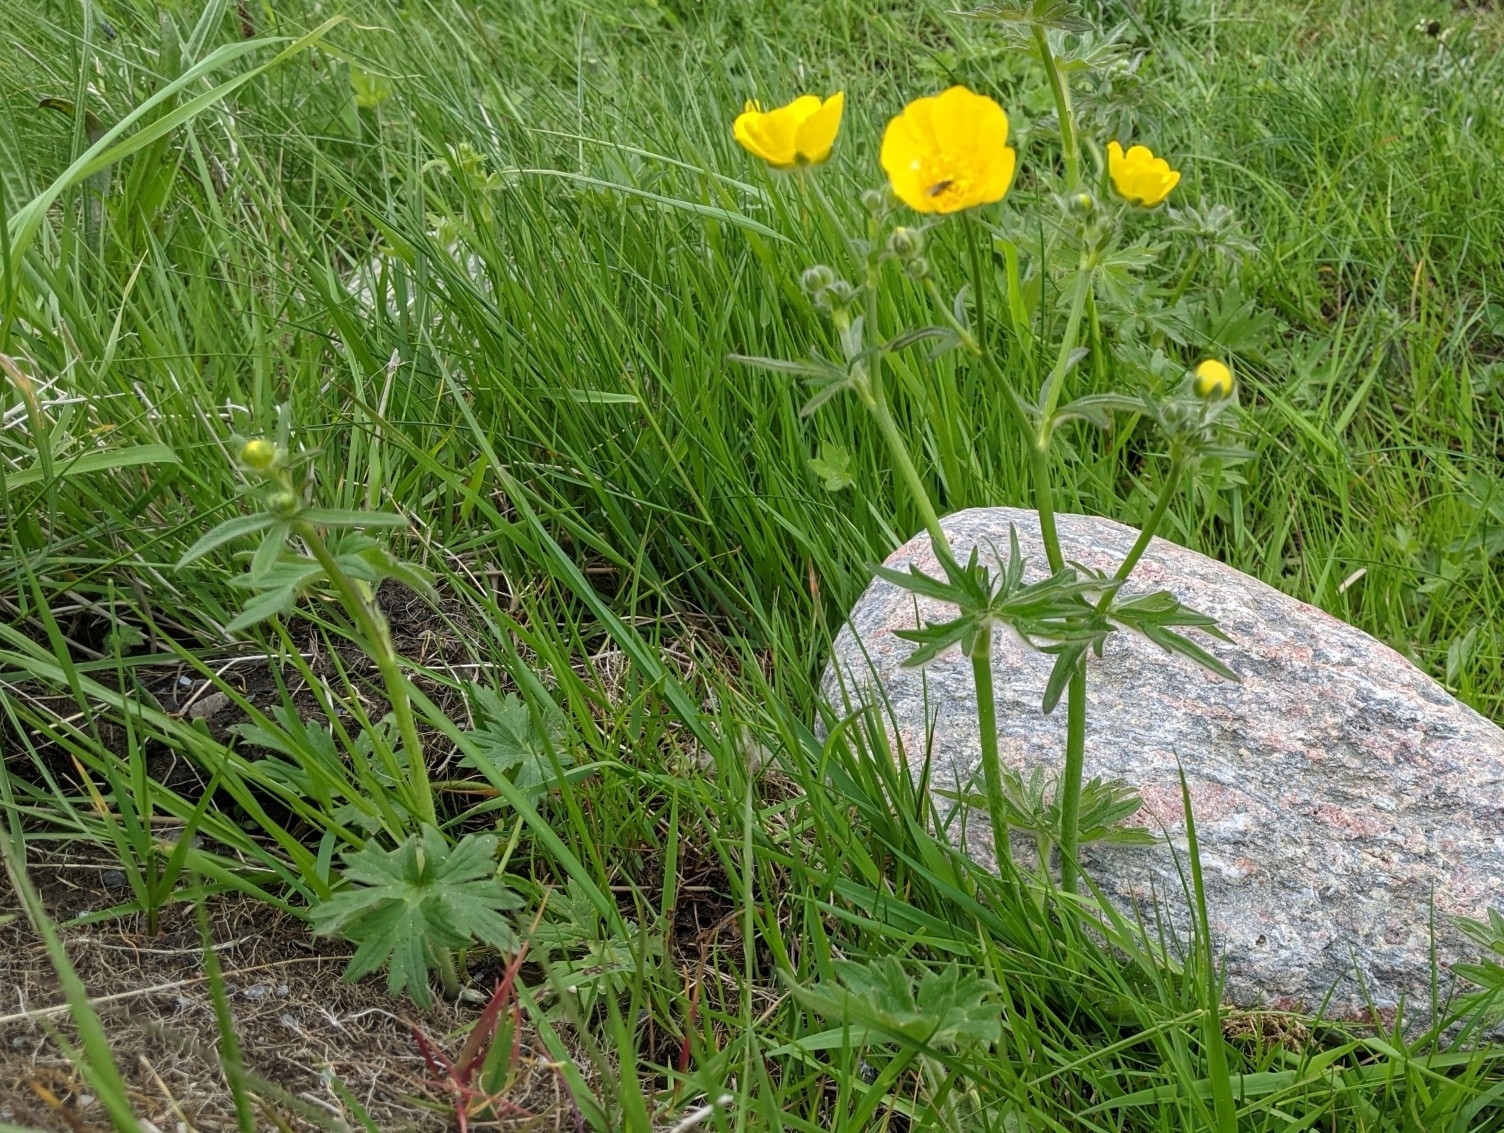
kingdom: Plantae
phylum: Tracheophyta
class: Magnoliopsida
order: Ranunculales
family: Ranunculaceae
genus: Ranunculus
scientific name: Ranunculus acris
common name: Meadow buttercup
